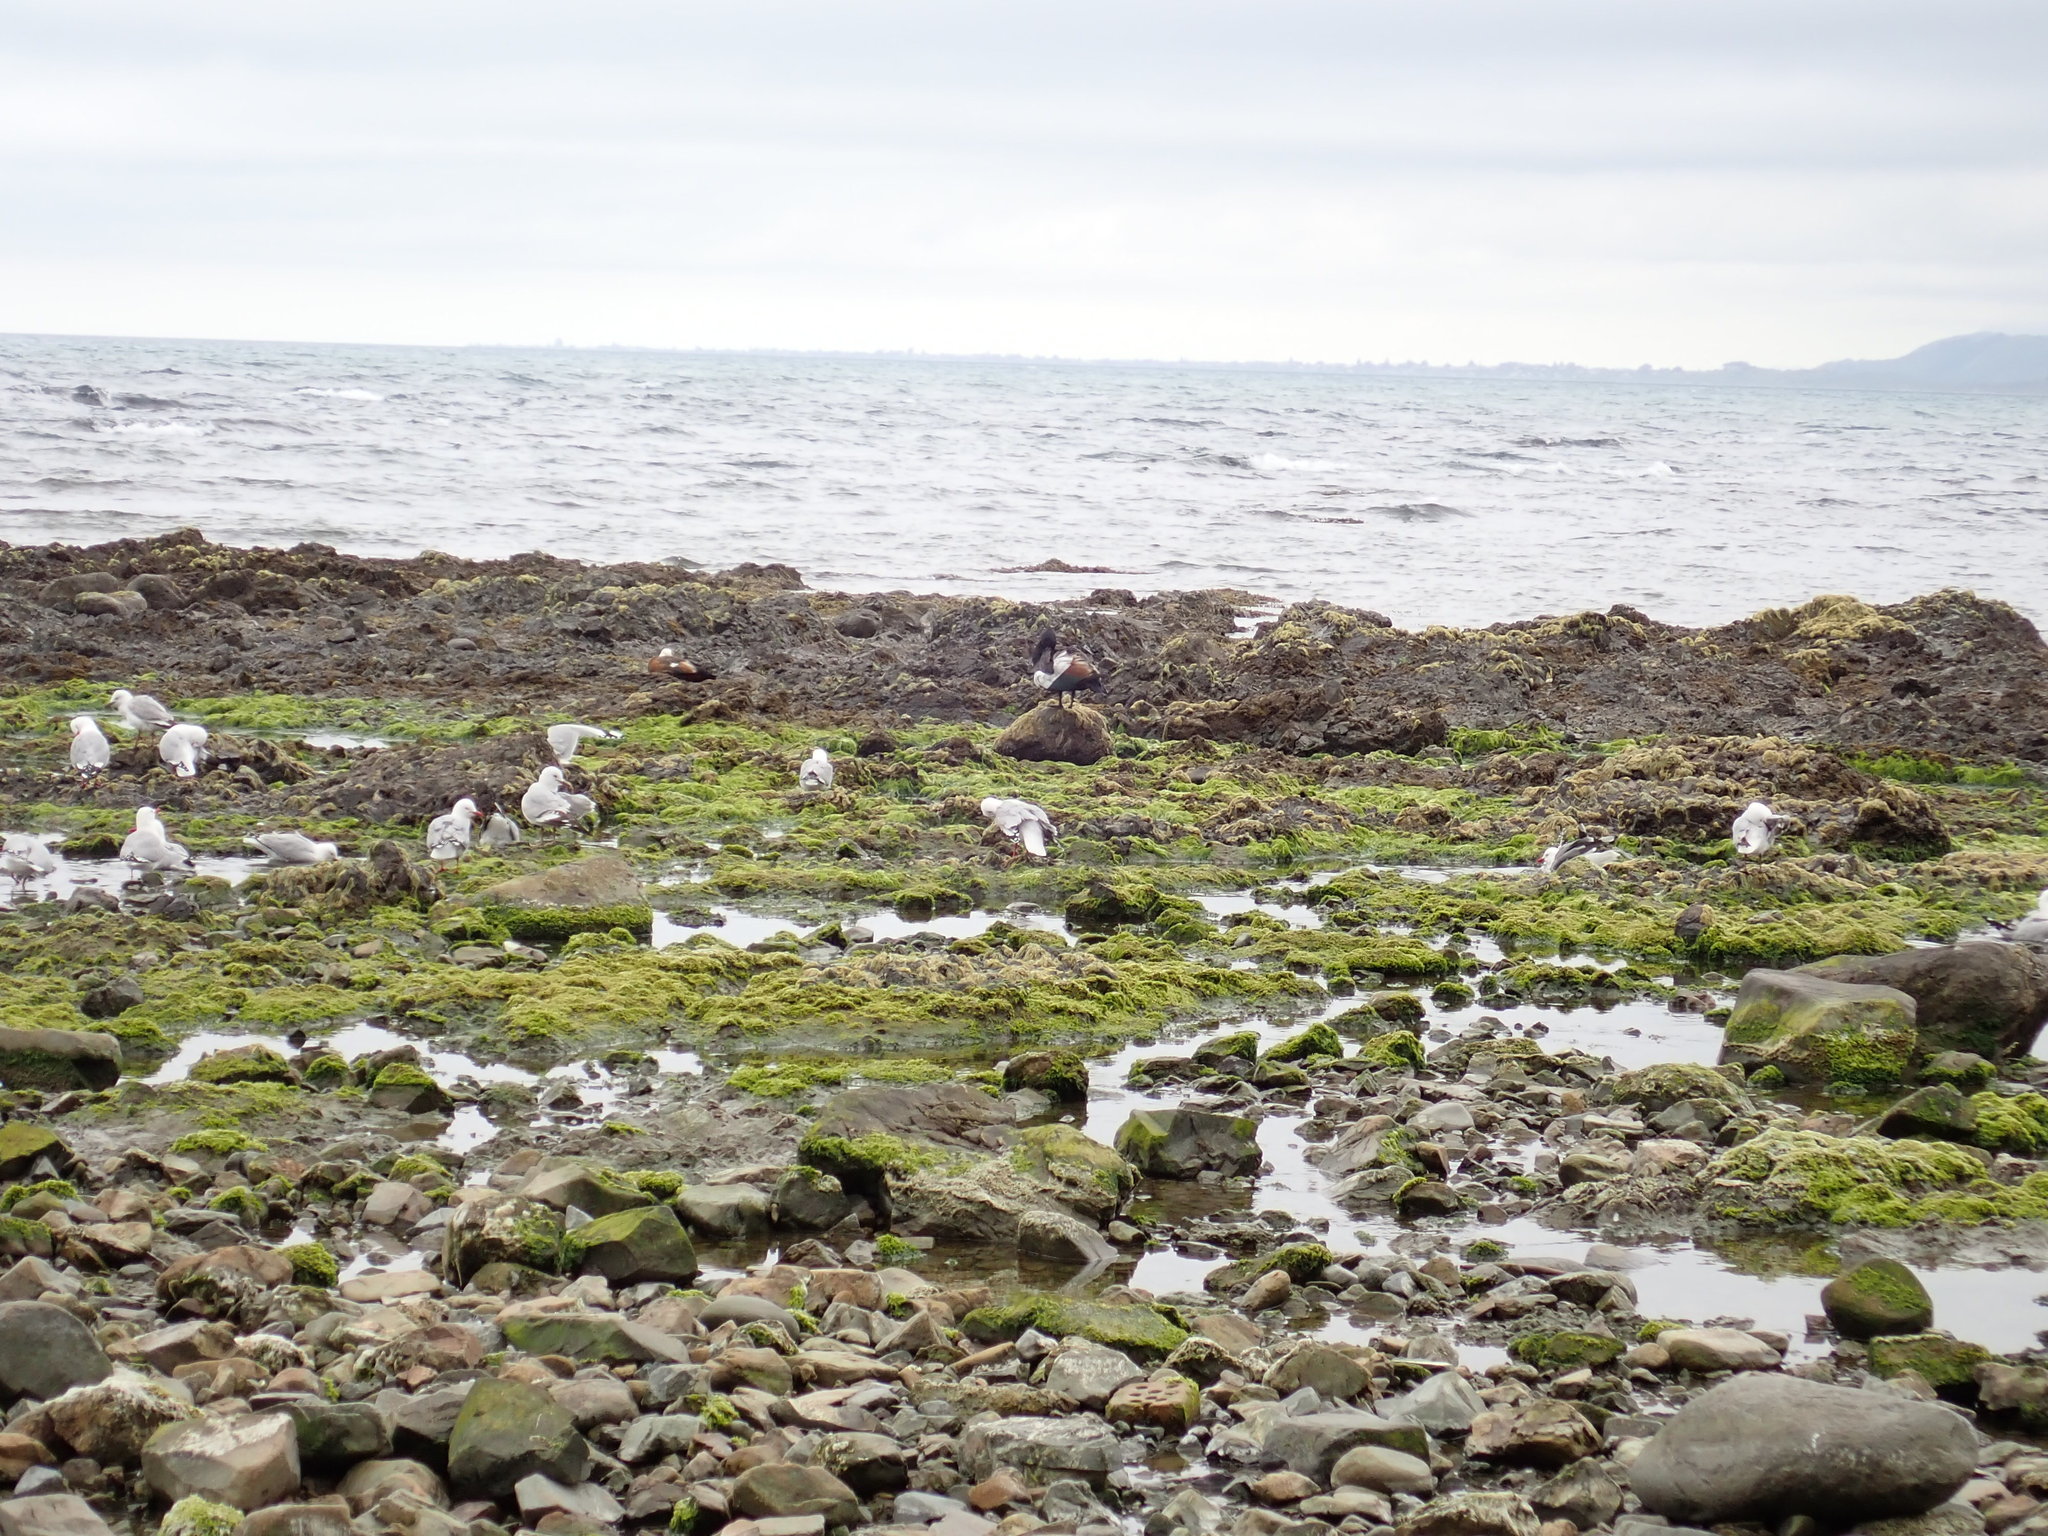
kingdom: Animalia
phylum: Chordata
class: Aves
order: Anseriformes
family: Anatidae
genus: Tadorna
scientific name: Tadorna variegata
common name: Paradise shelduck
